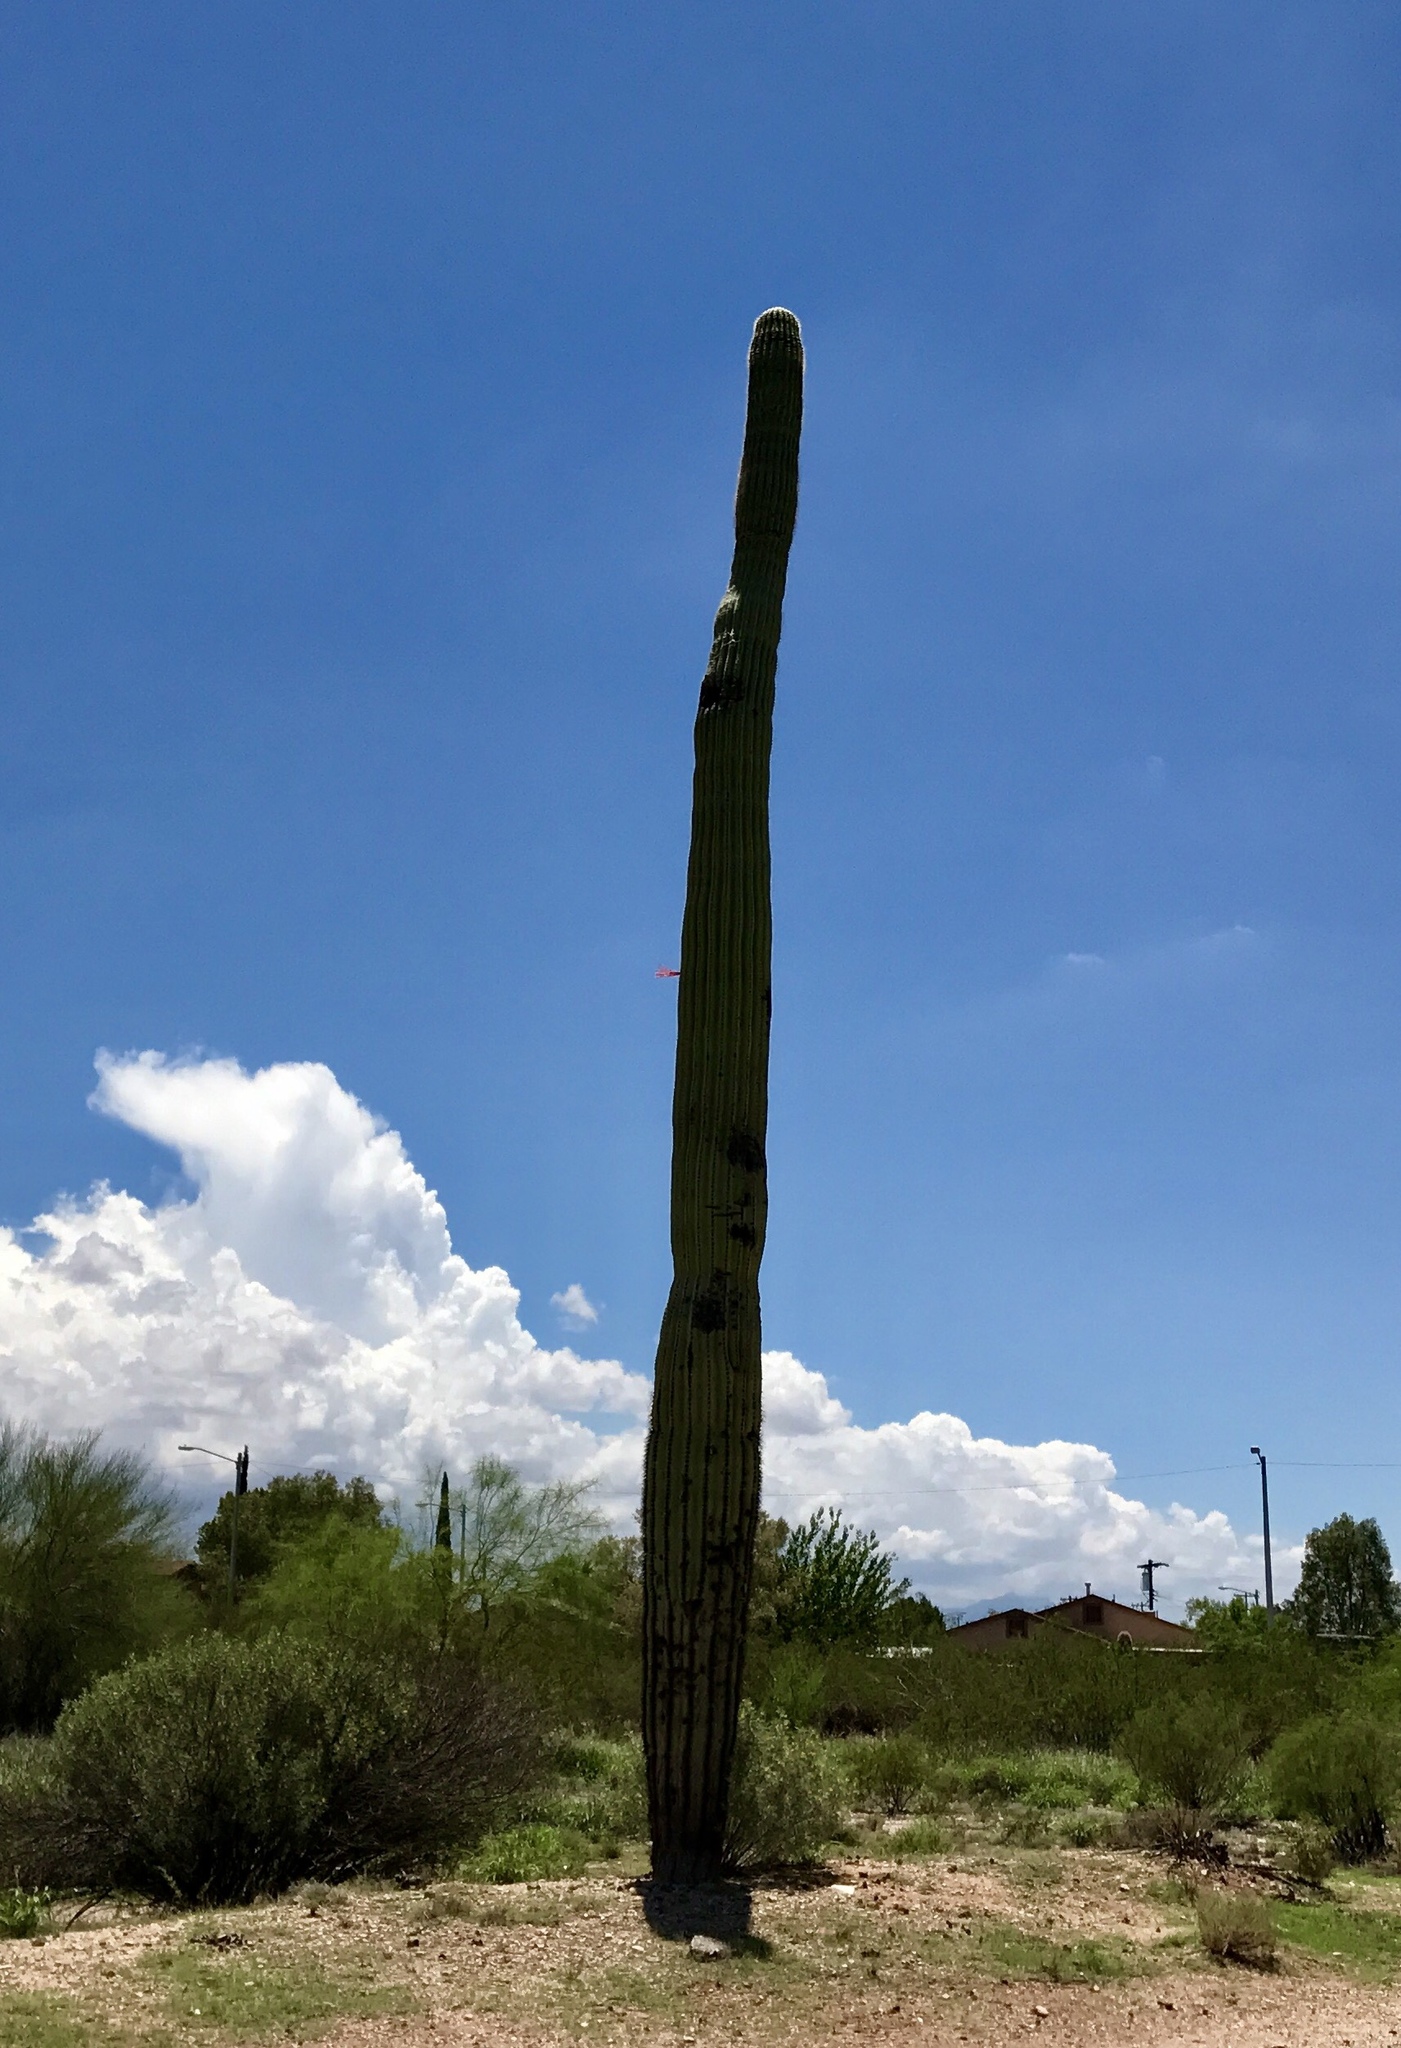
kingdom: Plantae
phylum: Tracheophyta
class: Magnoliopsida
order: Caryophyllales
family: Cactaceae
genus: Carnegiea
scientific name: Carnegiea gigantea
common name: Saguaro
